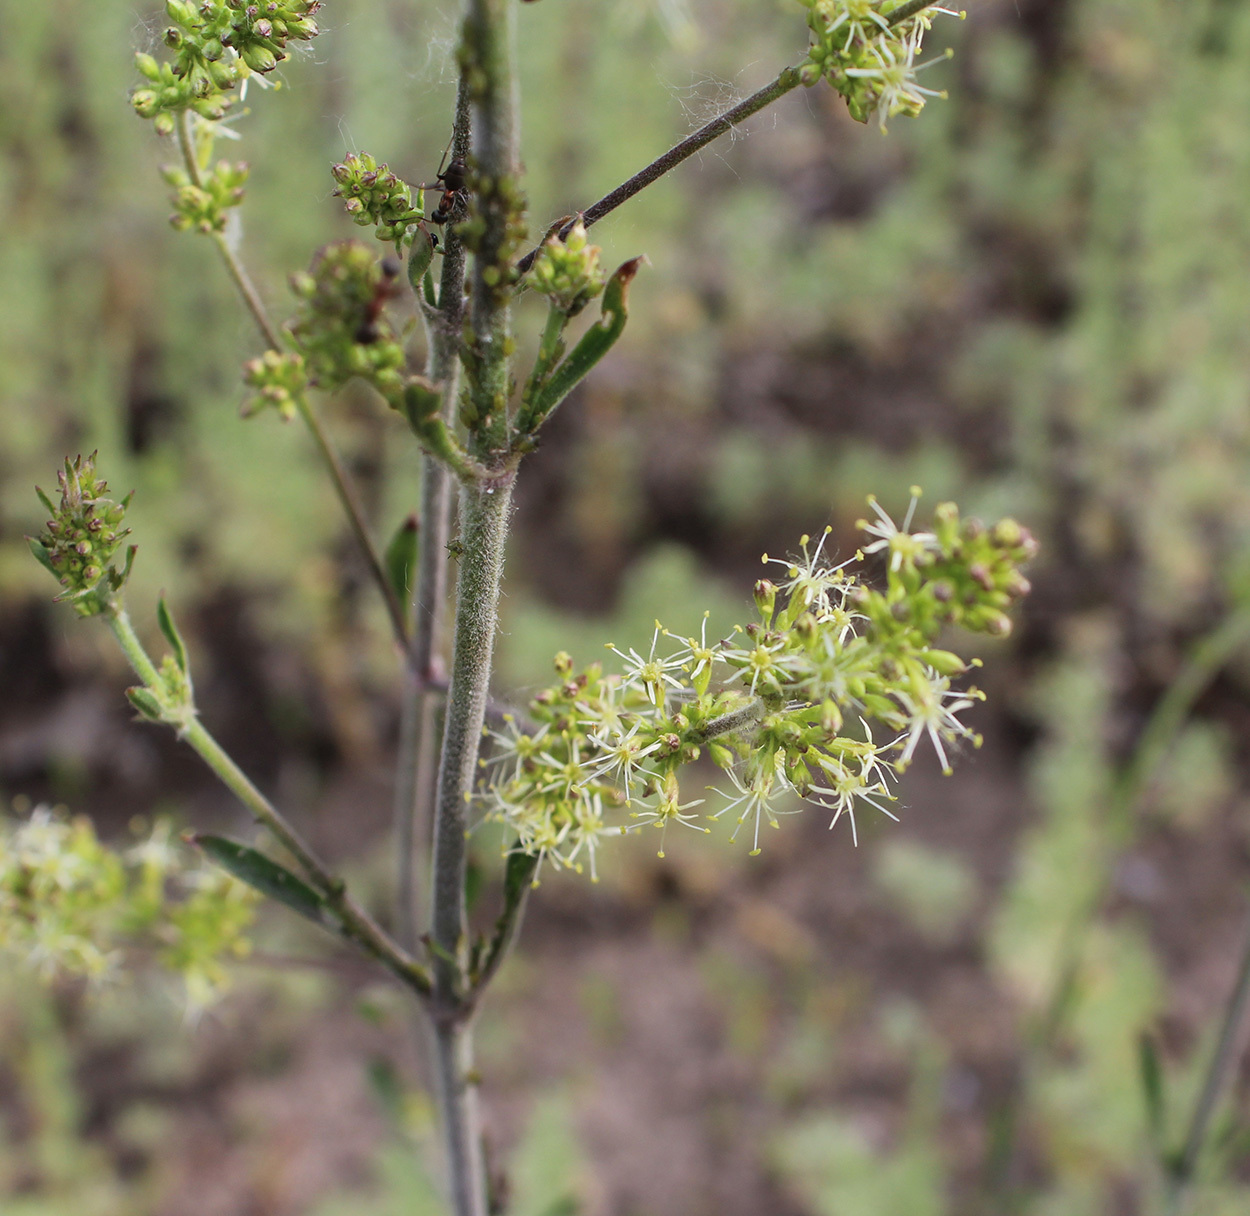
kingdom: Plantae
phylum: Tracheophyta
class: Magnoliopsida
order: Caryophyllales
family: Caryophyllaceae
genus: Silene
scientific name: Silene borysthenica
